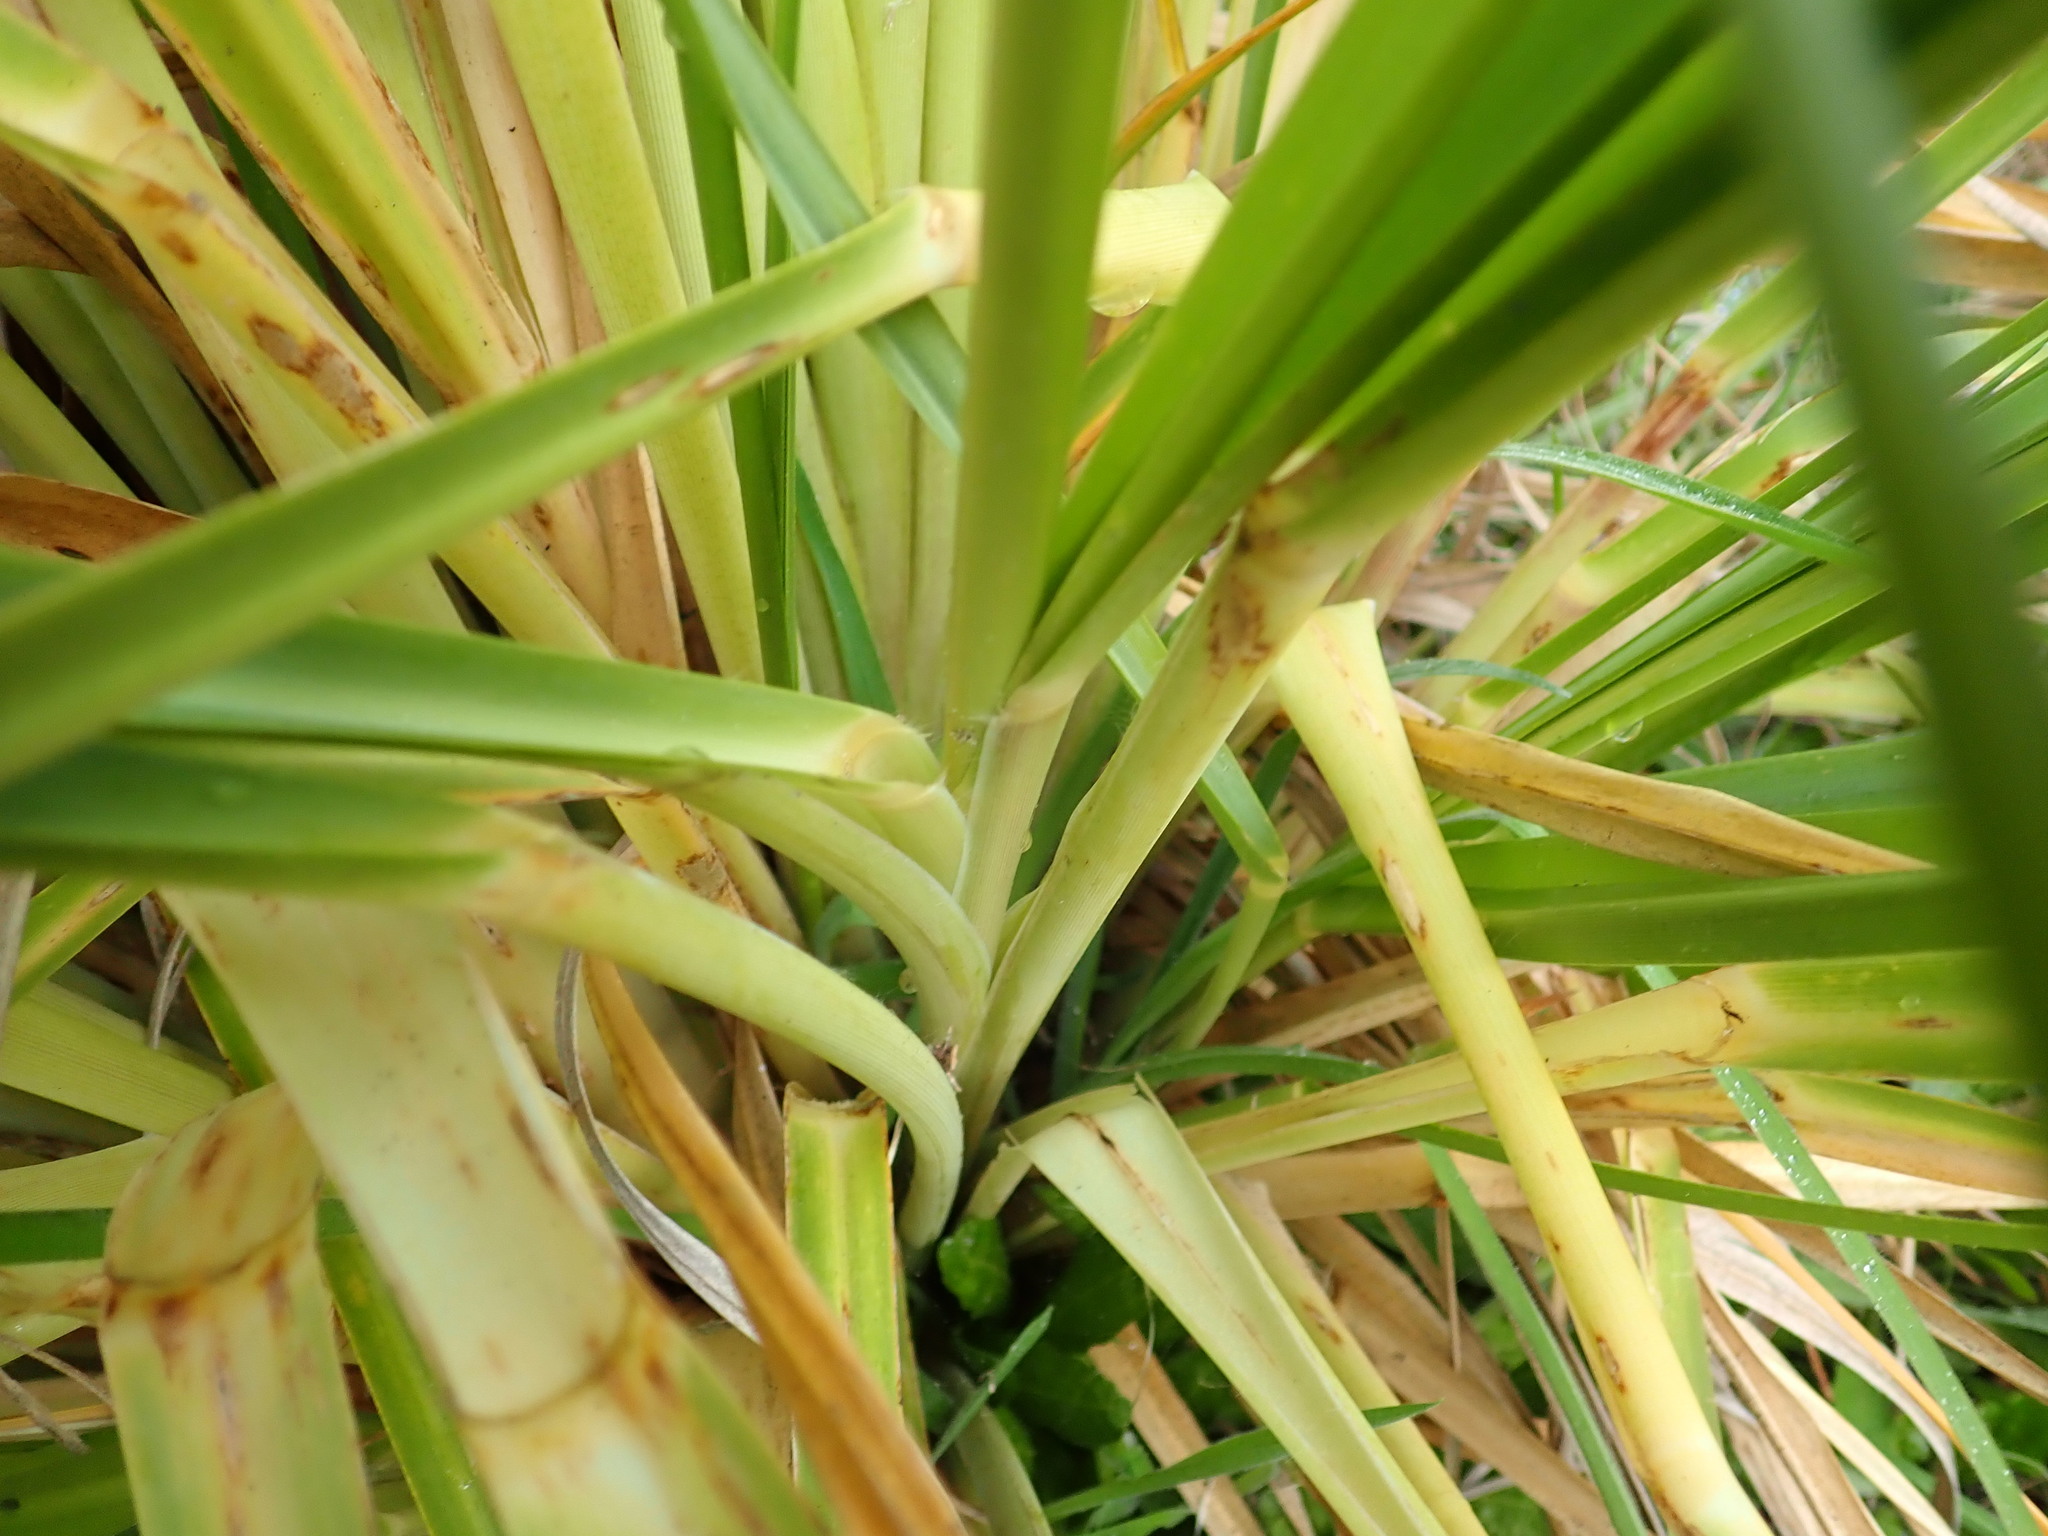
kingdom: Plantae
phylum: Tracheophyta
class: Liliopsida
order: Poales
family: Poaceae
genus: Cortaderia
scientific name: Cortaderia selloana
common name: Uruguayan pampas grass
